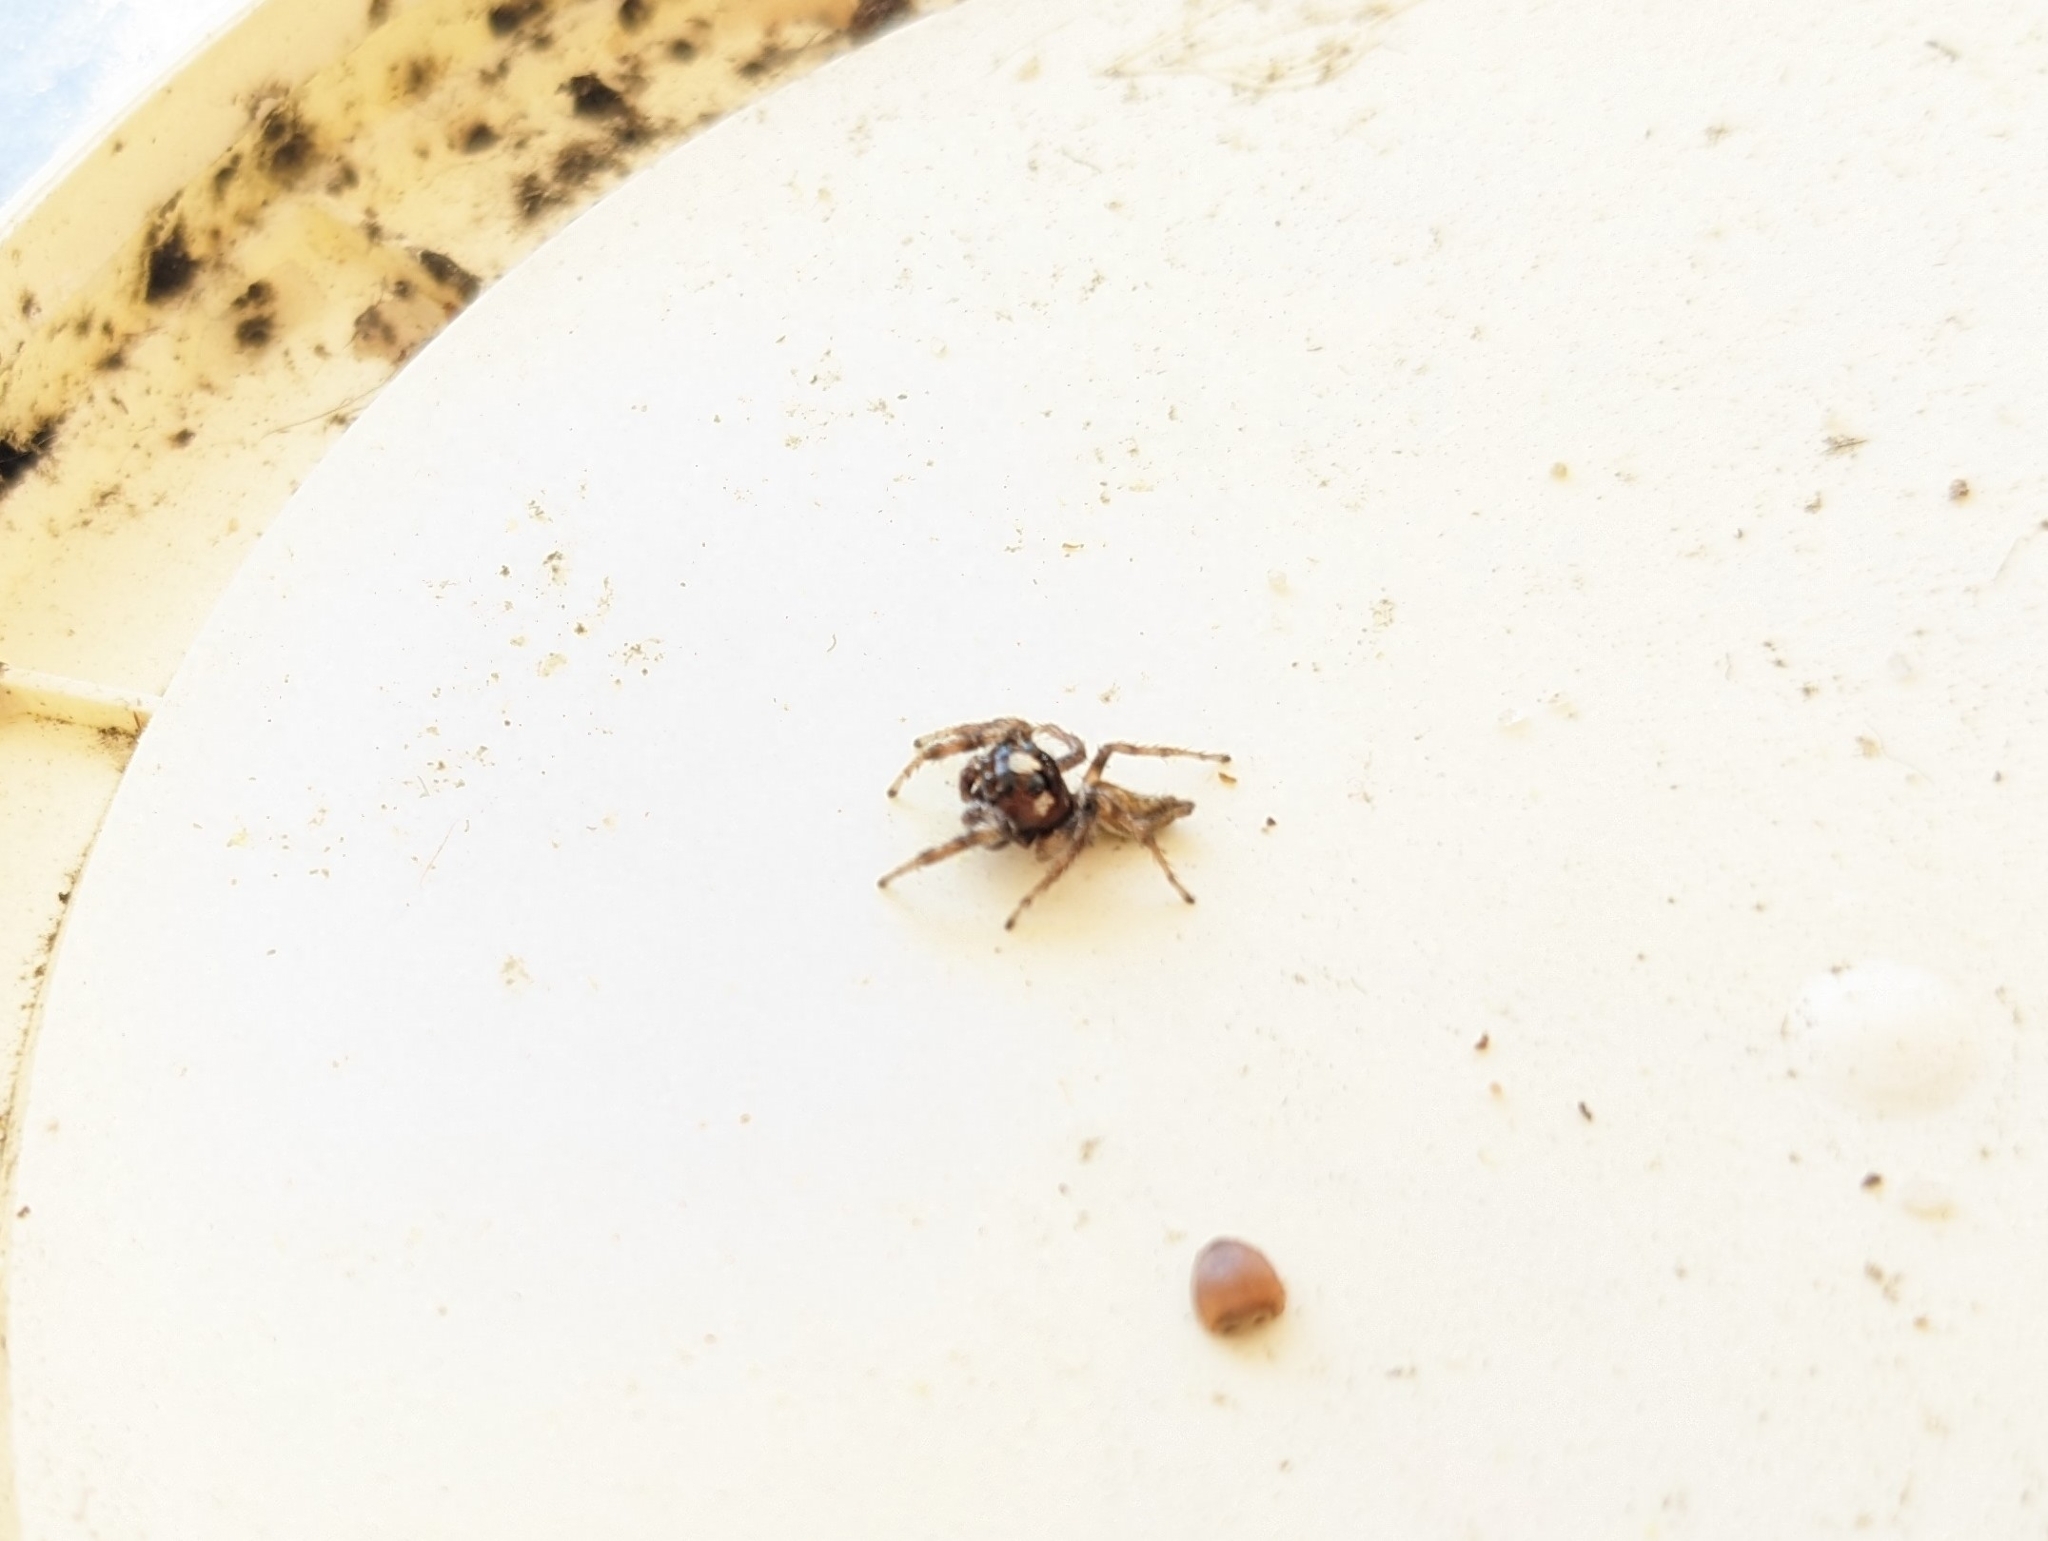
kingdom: Animalia
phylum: Arthropoda
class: Arachnida
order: Araneae
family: Salticidae
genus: Colonus
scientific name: Colonus hesperus
